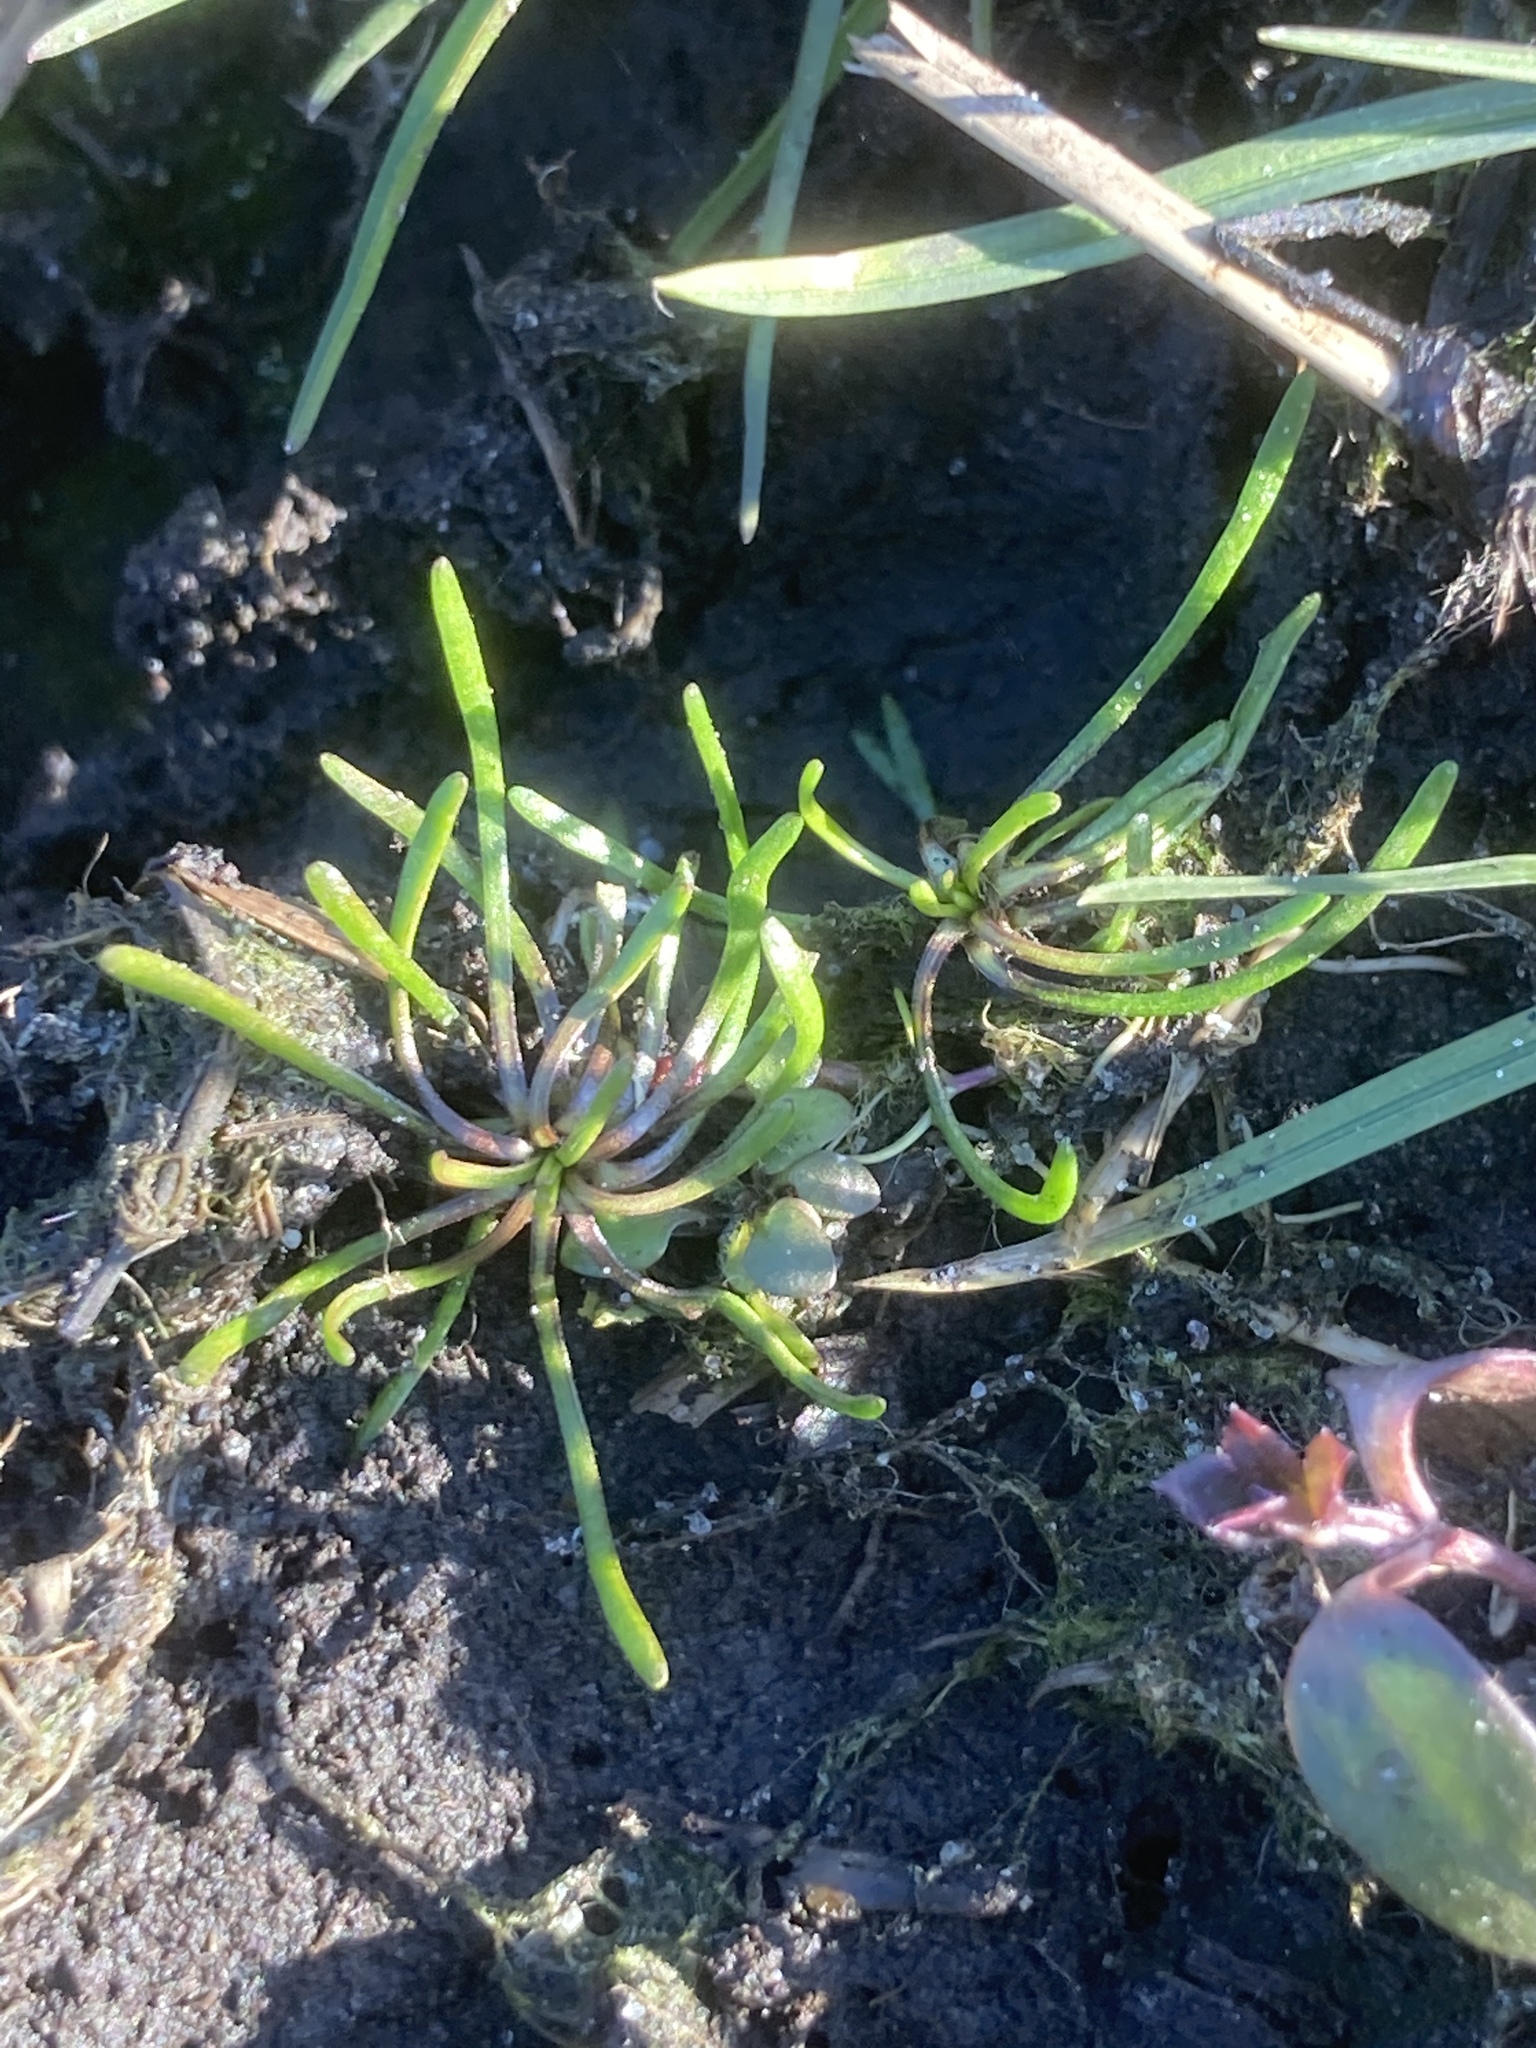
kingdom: Plantae
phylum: Tracheophyta
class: Magnoliopsida
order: Ranunculales
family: Ranunculaceae
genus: Myosurus
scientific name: Myosurus minimus
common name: Mousetail
